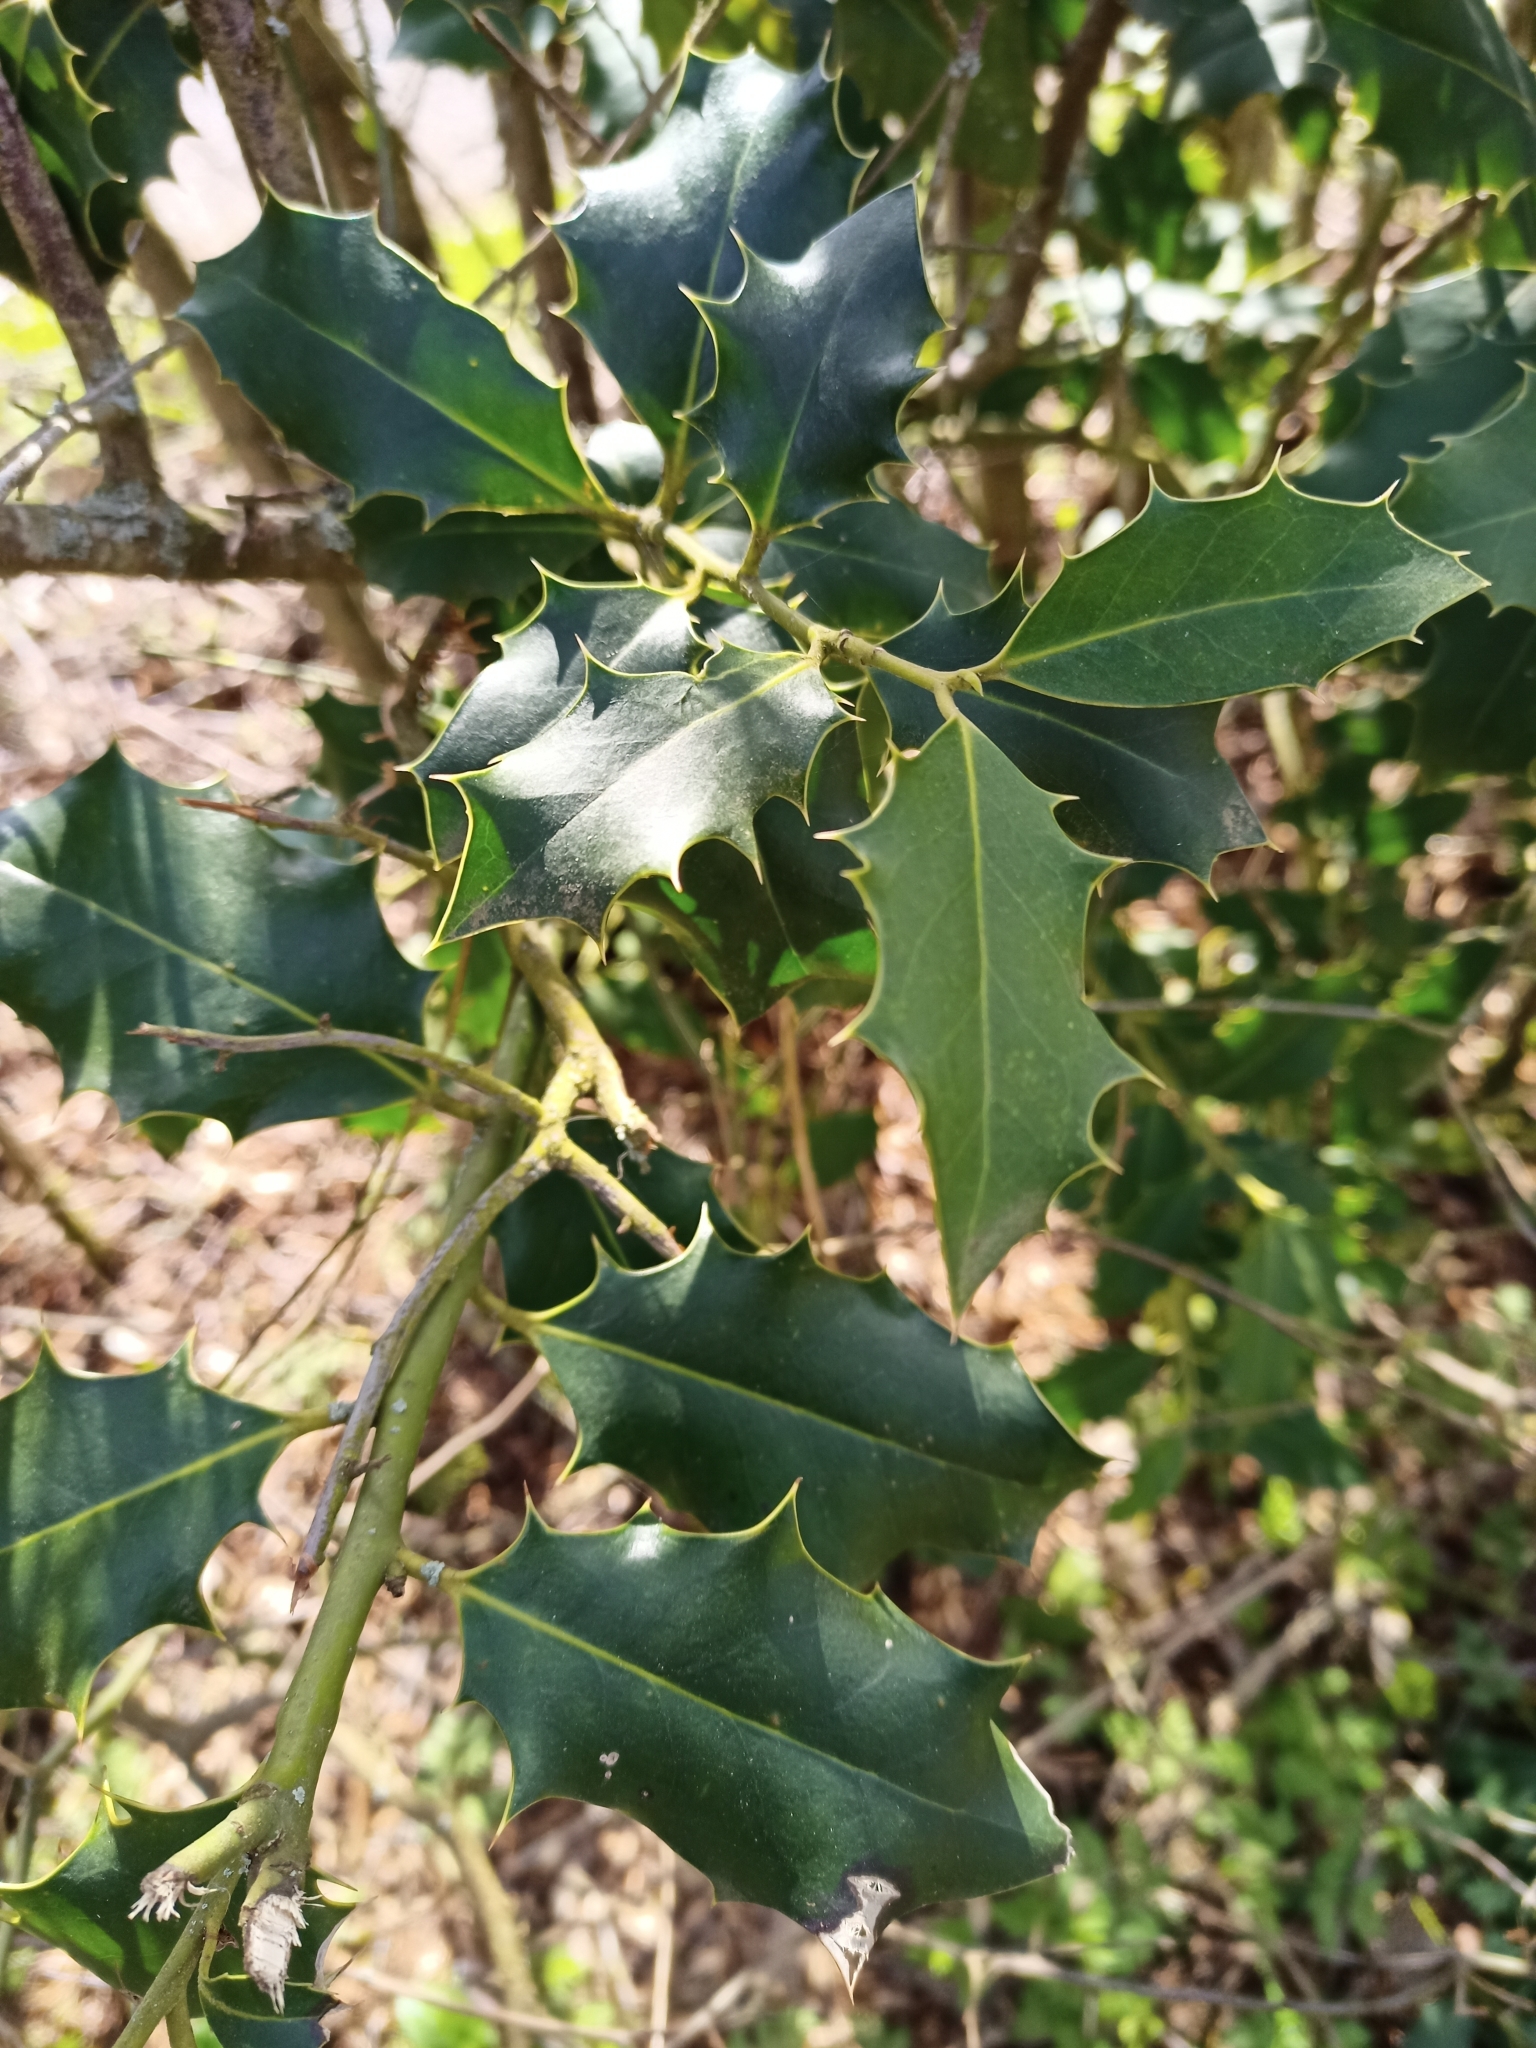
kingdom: Plantae
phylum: Tracheophyta
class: Magnoliopsida
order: Aquifoliales
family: Aquifoliaceae
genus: Ilex
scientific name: Ilex aquifolium
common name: English holly
